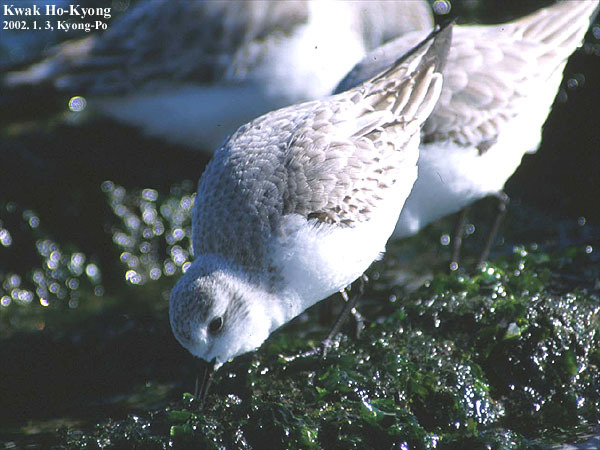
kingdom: Animalia
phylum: Chordata
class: Aves
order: Charadriiformes
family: Scolopacidae
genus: Calidris
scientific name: Calidris alba
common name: Sanderling
